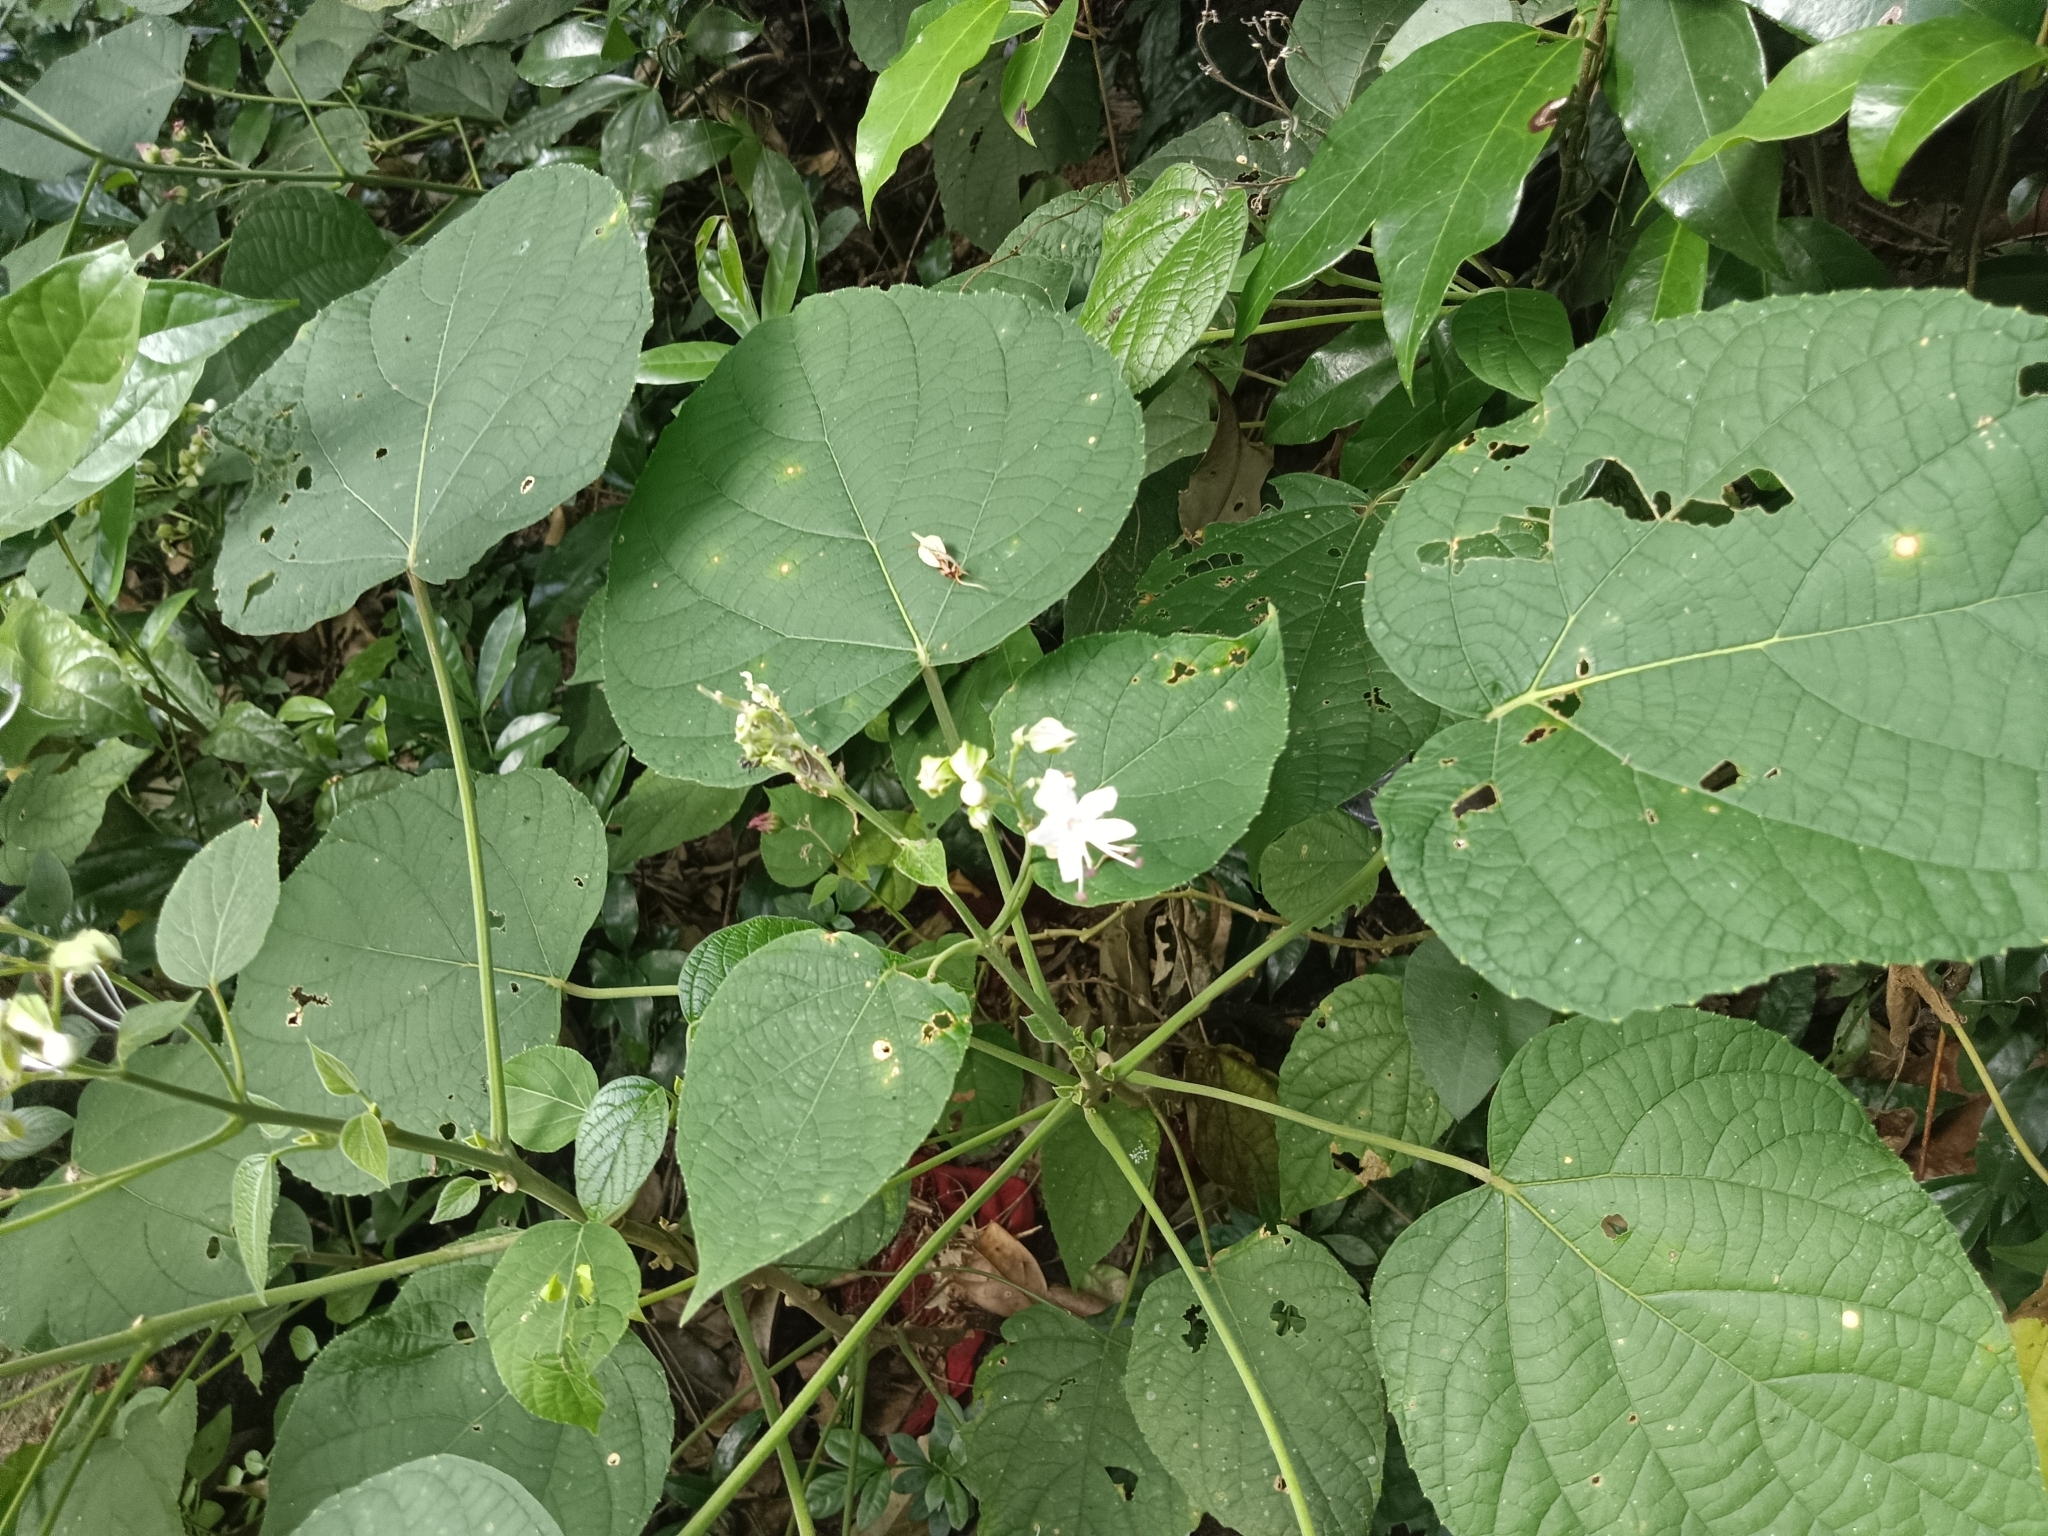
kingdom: Plantae
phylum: Tracheophyta
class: Magnoliopsida
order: Lamiales
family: Lamiaceae
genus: Clerodendrum
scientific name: Clerodendrum infortunatum
